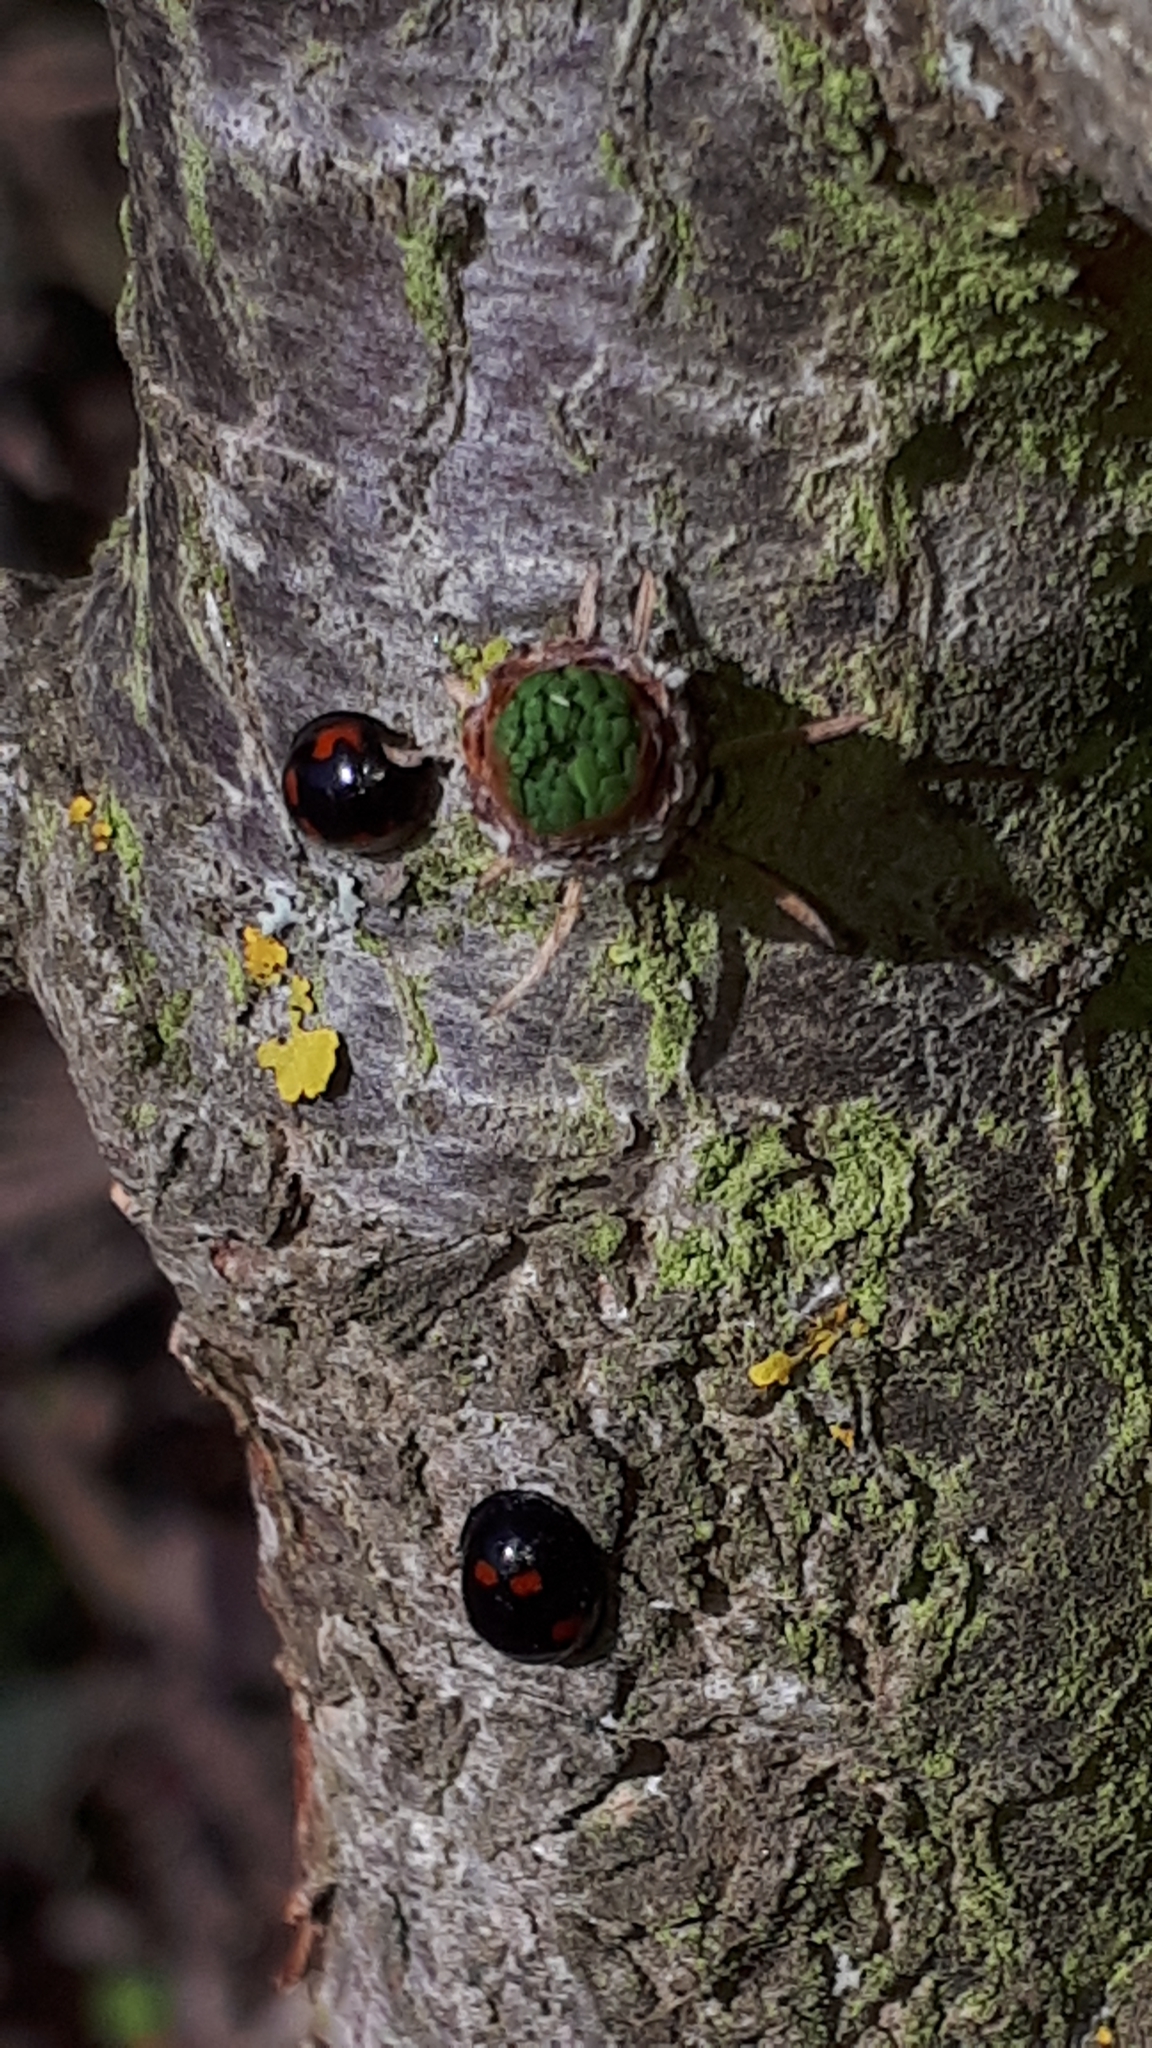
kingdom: Animalia
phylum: Arthropoda
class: Insecta
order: Coleoptera
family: Coccinellidae
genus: Brumus
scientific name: Brumus quadripustulatus
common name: Ladybird beetle
